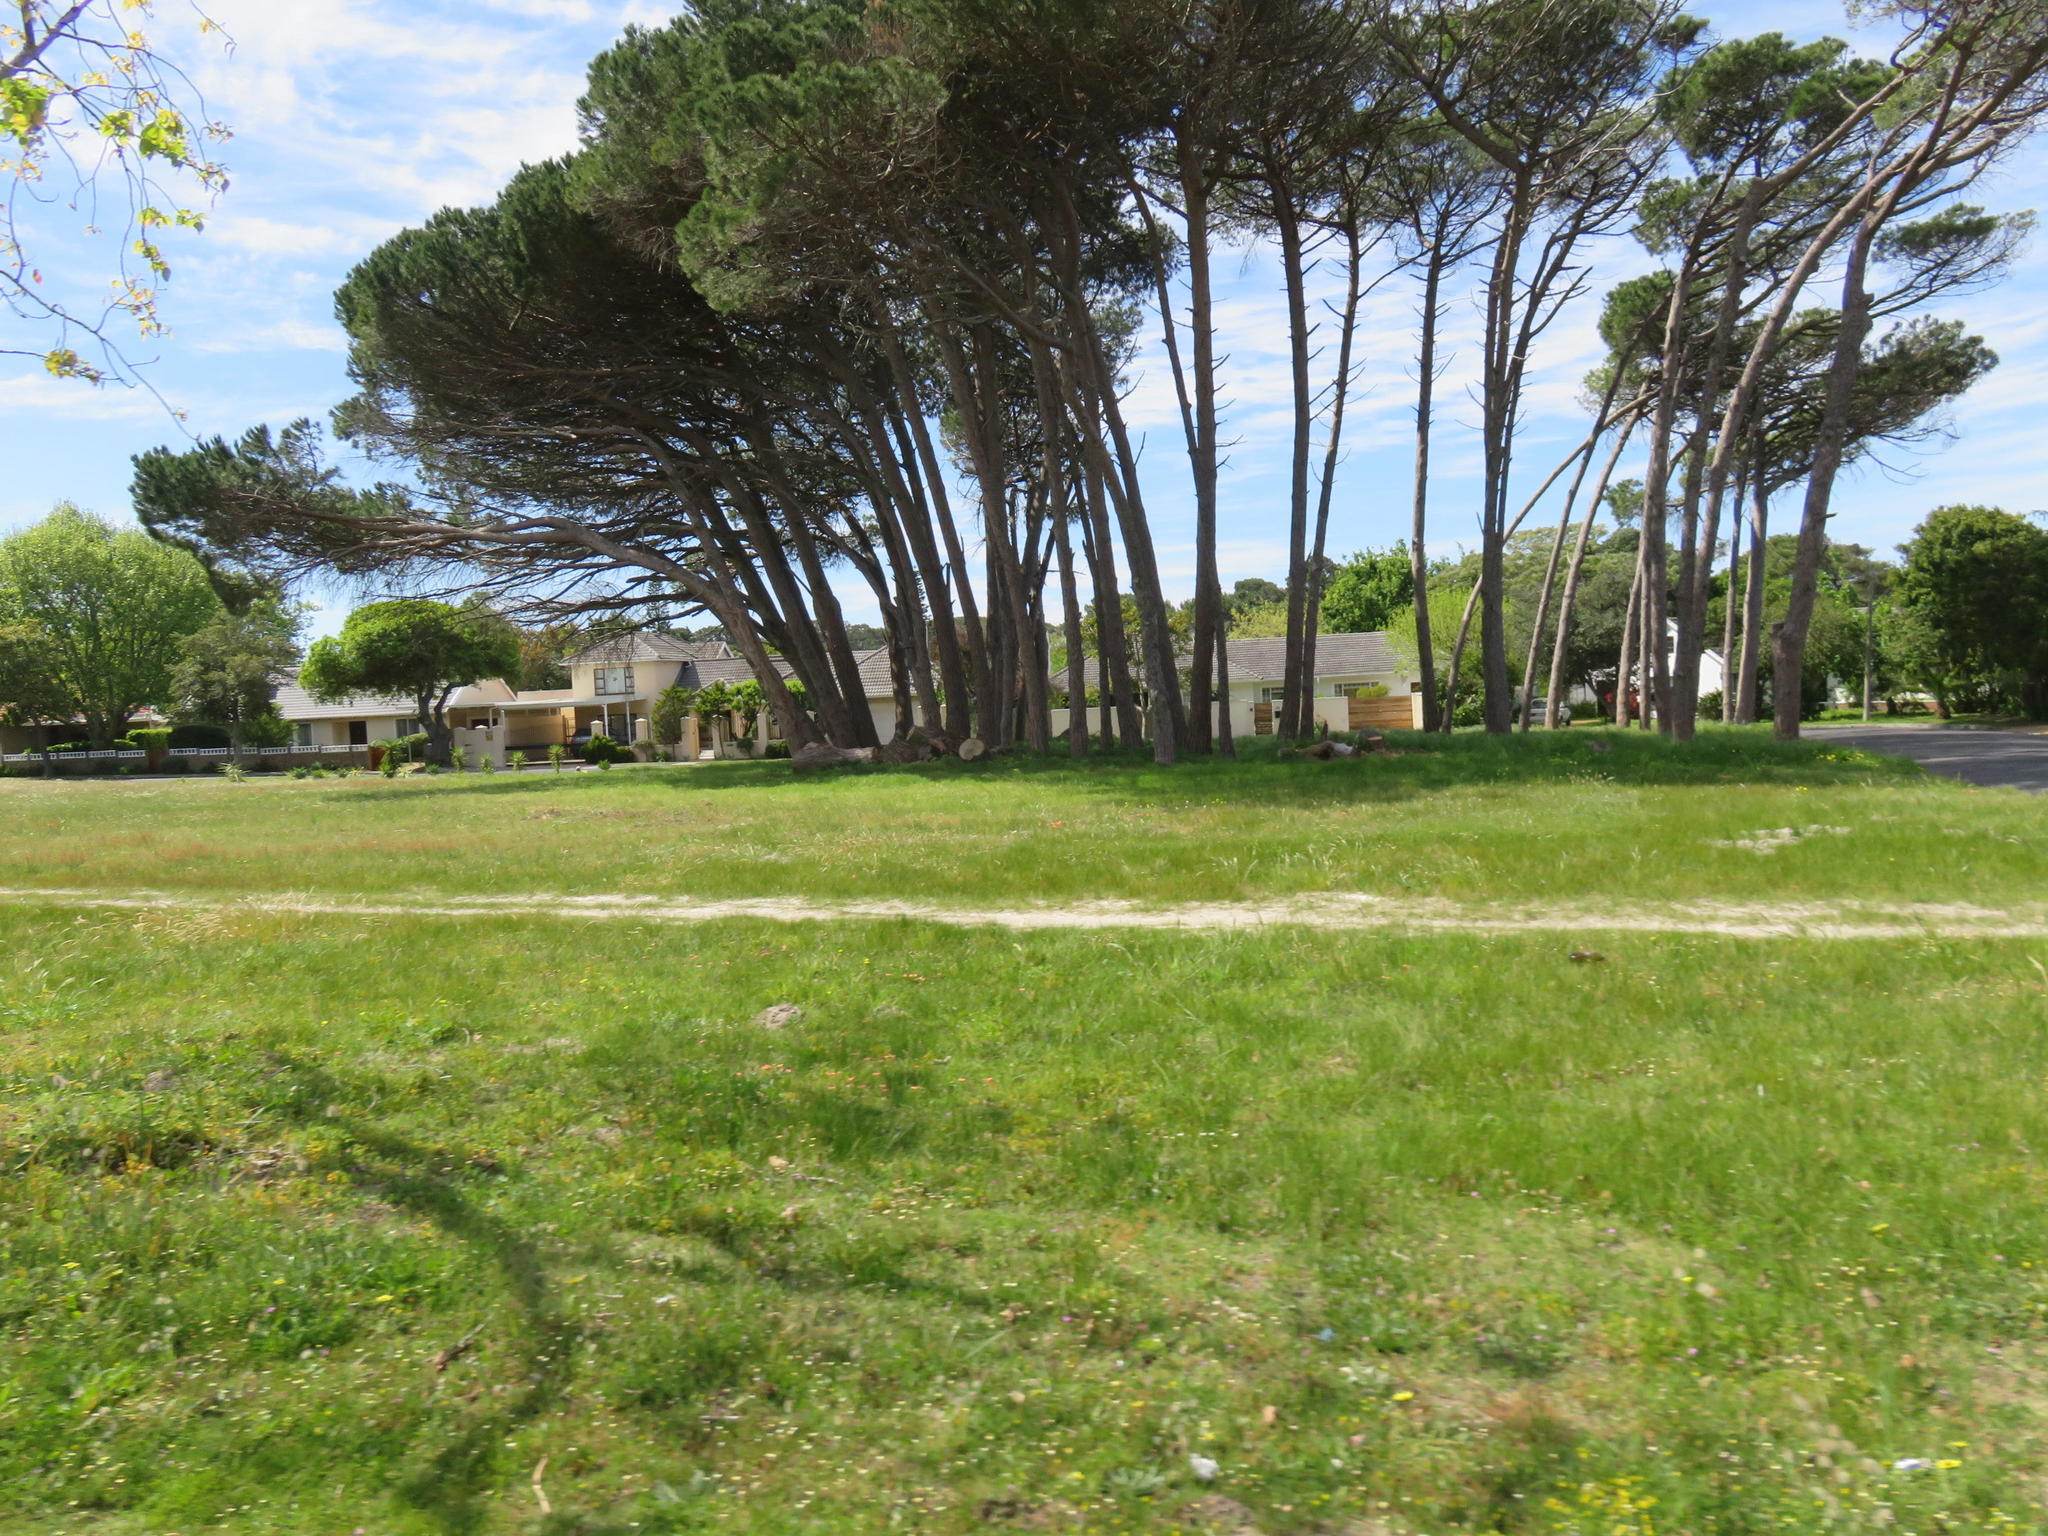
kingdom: Plantae
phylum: Tracheophyta
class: Pinopsida
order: Pinales
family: Pinaceae
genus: Pinus
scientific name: Pinus pinea
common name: Italian stone pine
